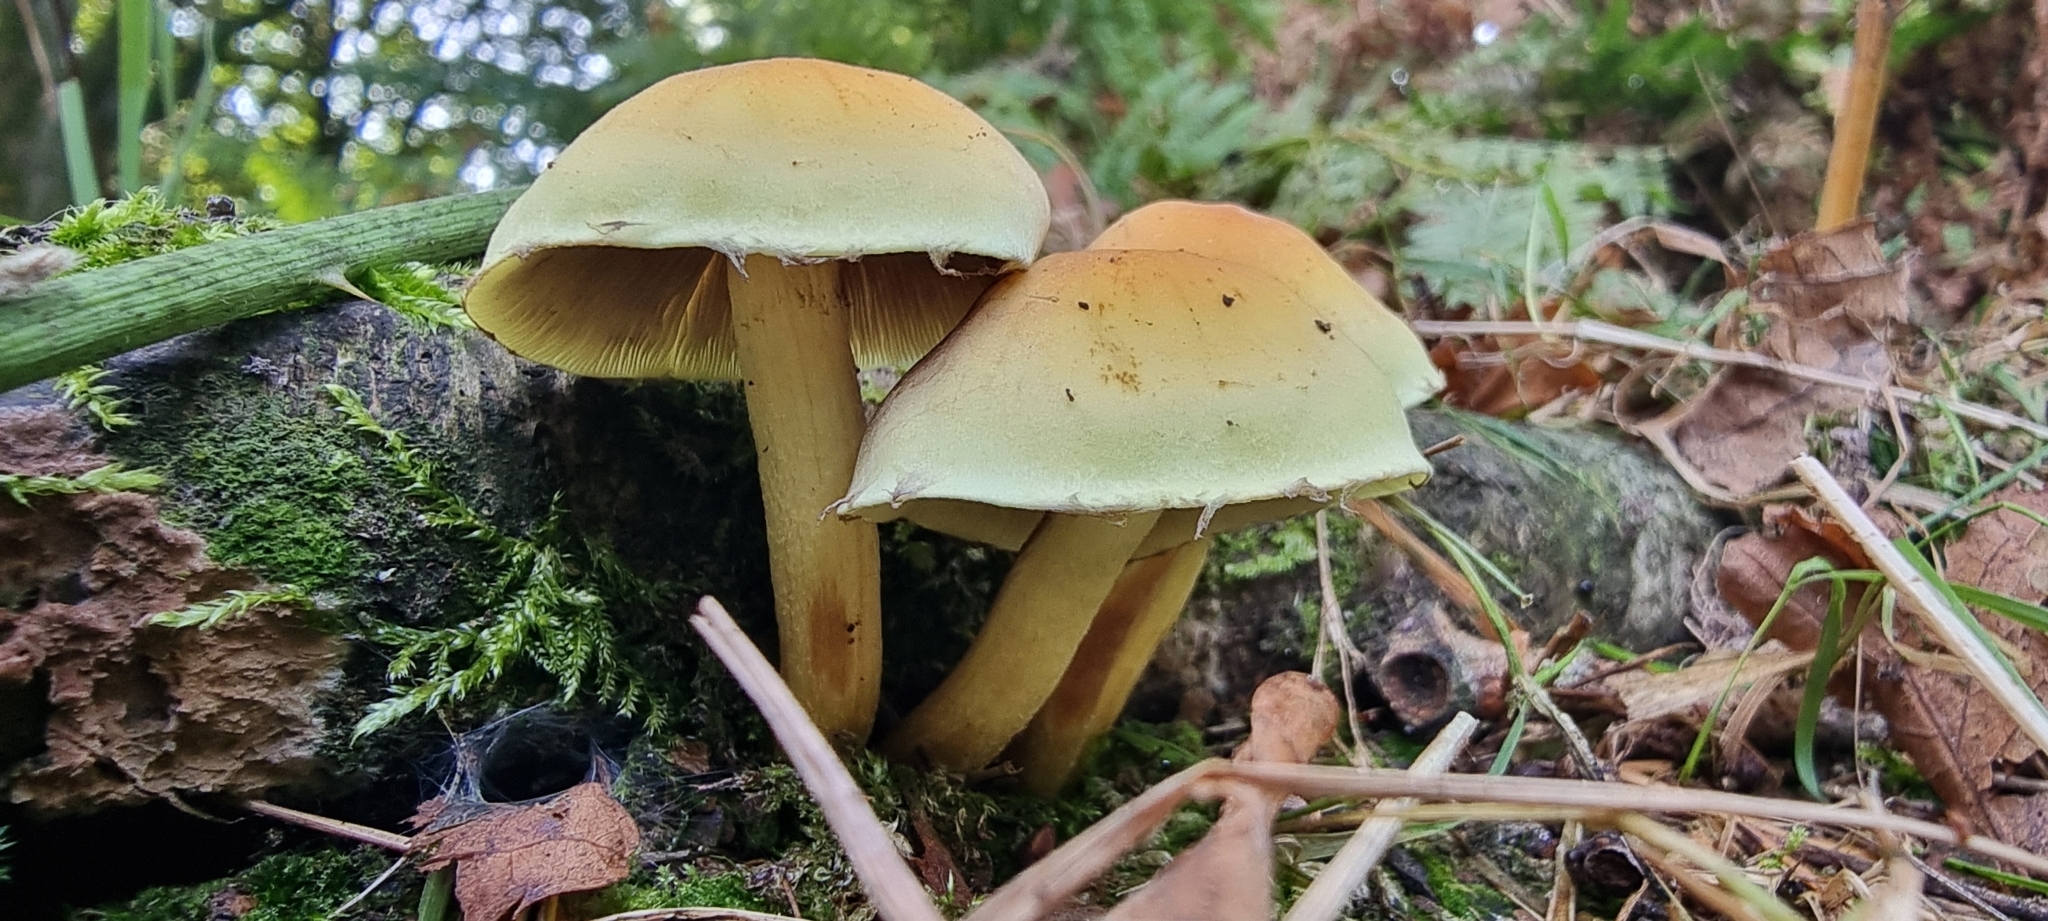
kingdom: Fungi
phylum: Basidiomycota
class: Agaricomycetes
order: Agaricales
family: Strophariaceae
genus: Hypholoma
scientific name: Hypholoma fasciculare
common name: Sulphur tuft
